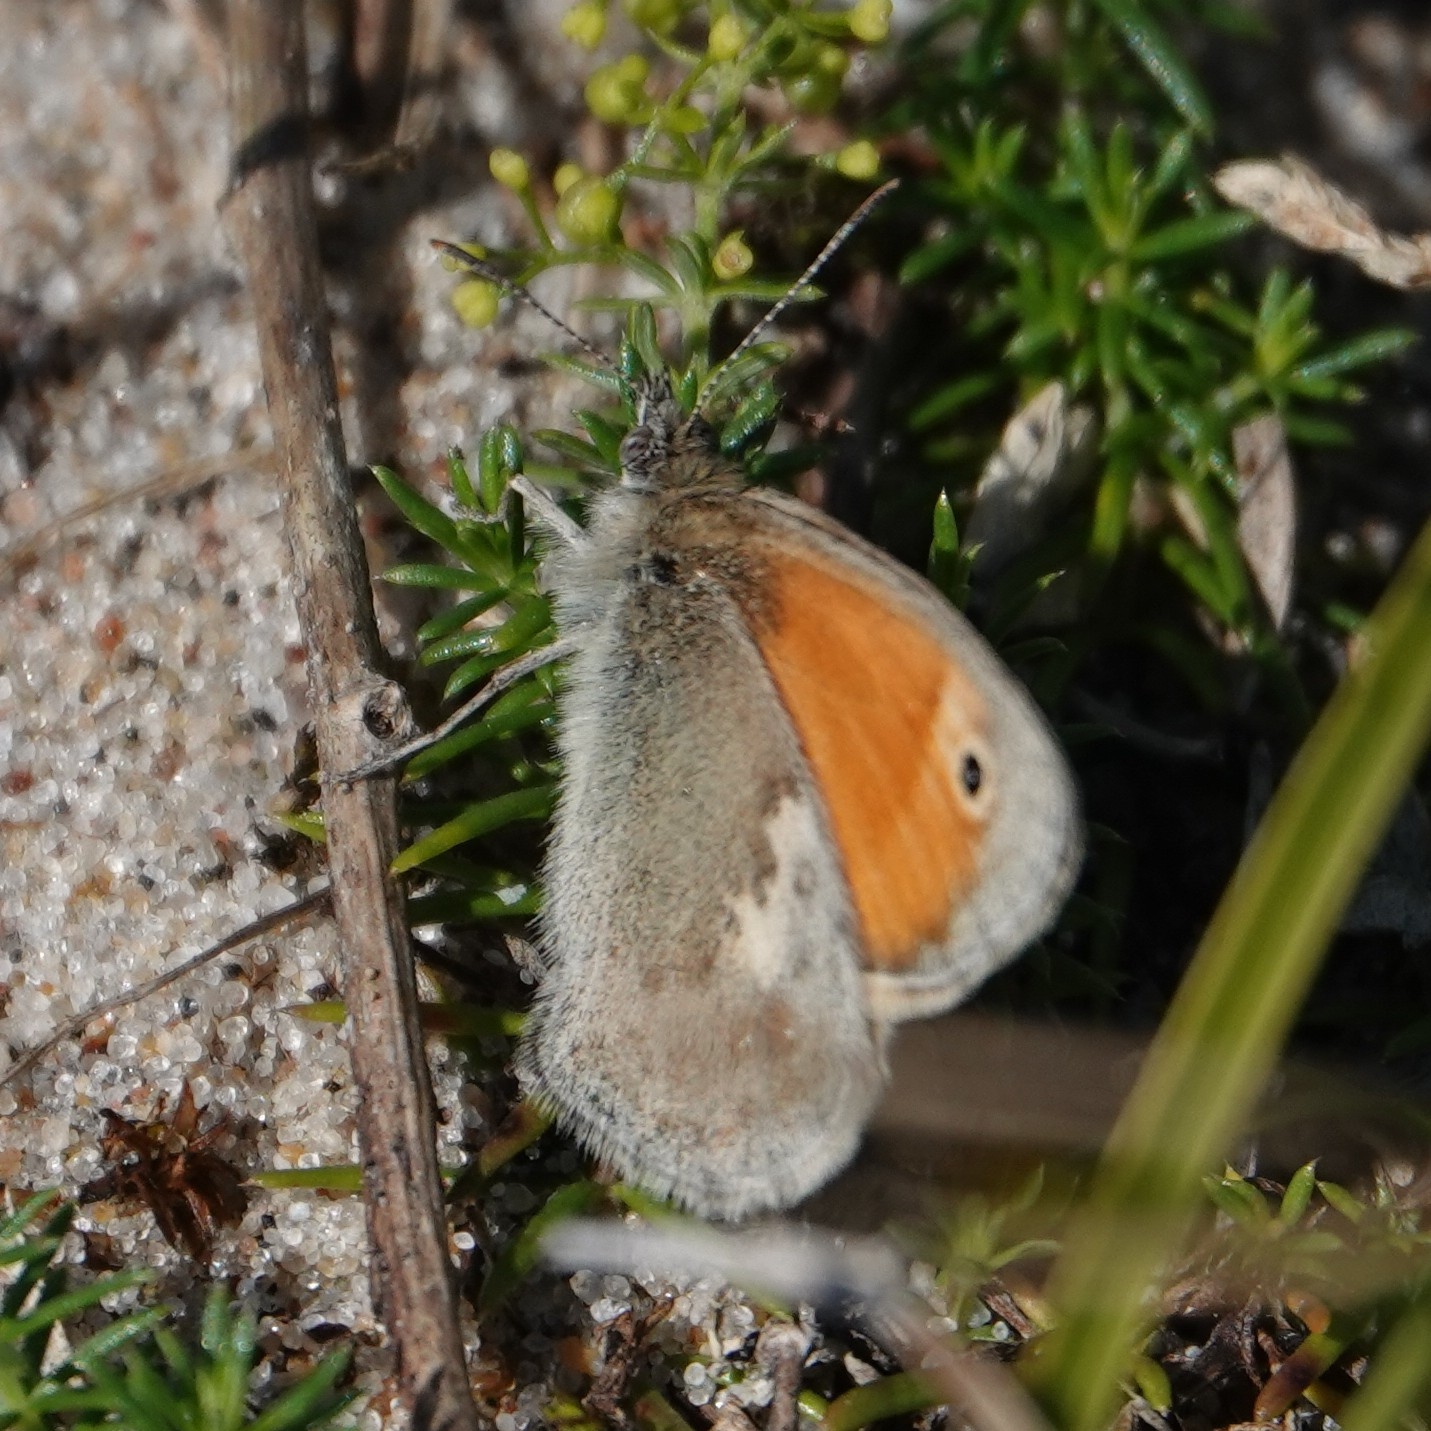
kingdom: Animalia
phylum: Arthropoda
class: Insecta
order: Lepidoptera
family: Nymphalidae
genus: Coenonympha
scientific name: Coenonympha pamphilus
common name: Small heath
